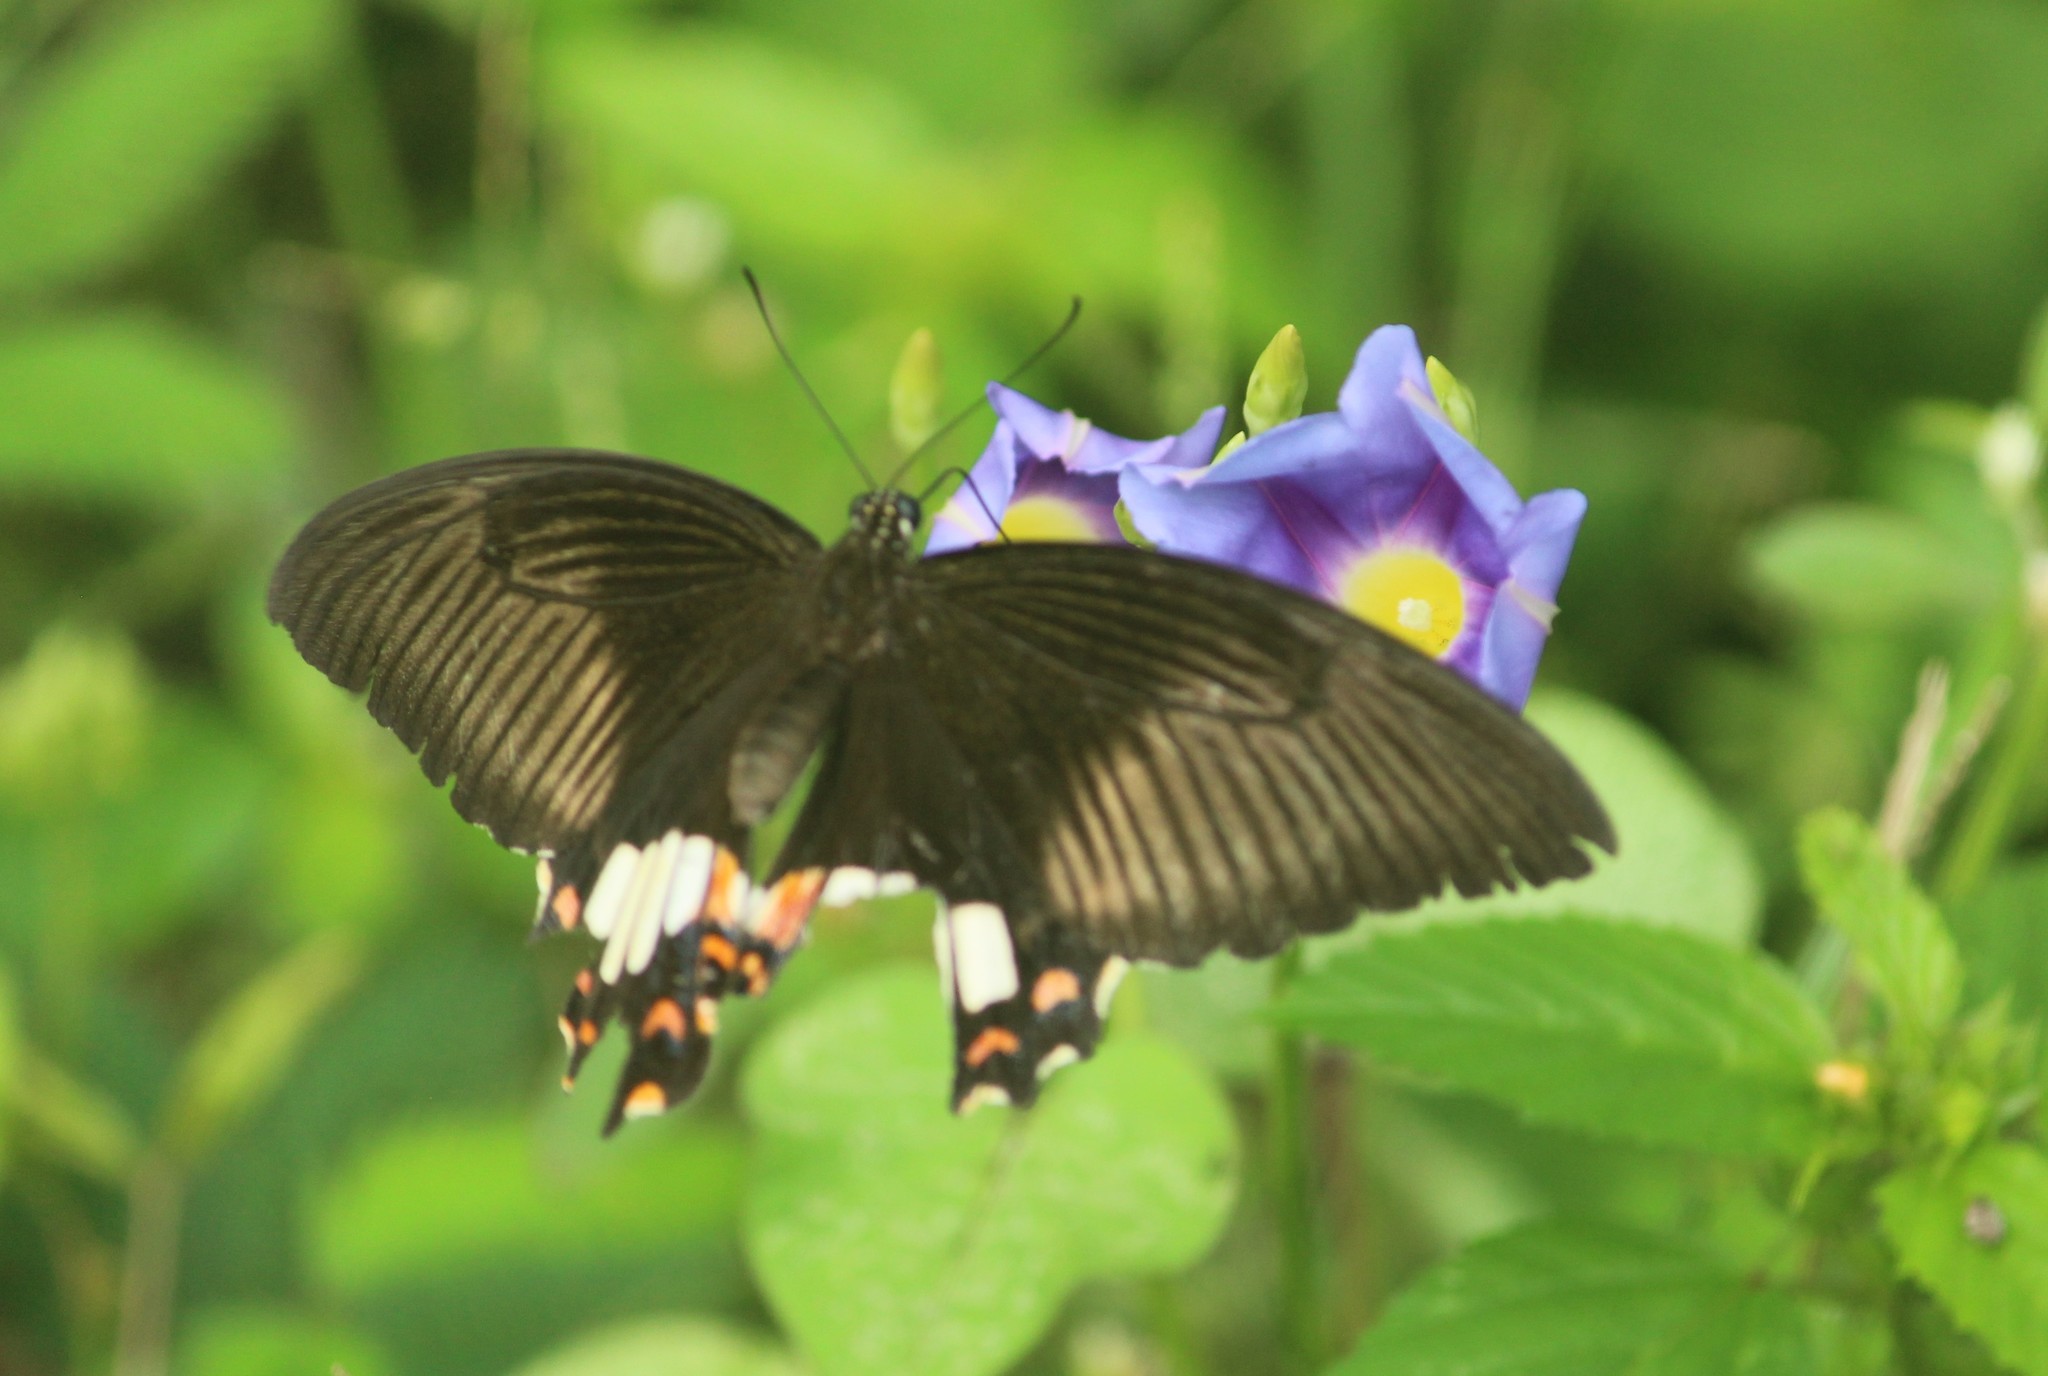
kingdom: Animalia
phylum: Arthropoda
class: Insecta
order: Lepidoptera
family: Papilionidae
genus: Papilio
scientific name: Papilio polytes
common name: Common mormon
